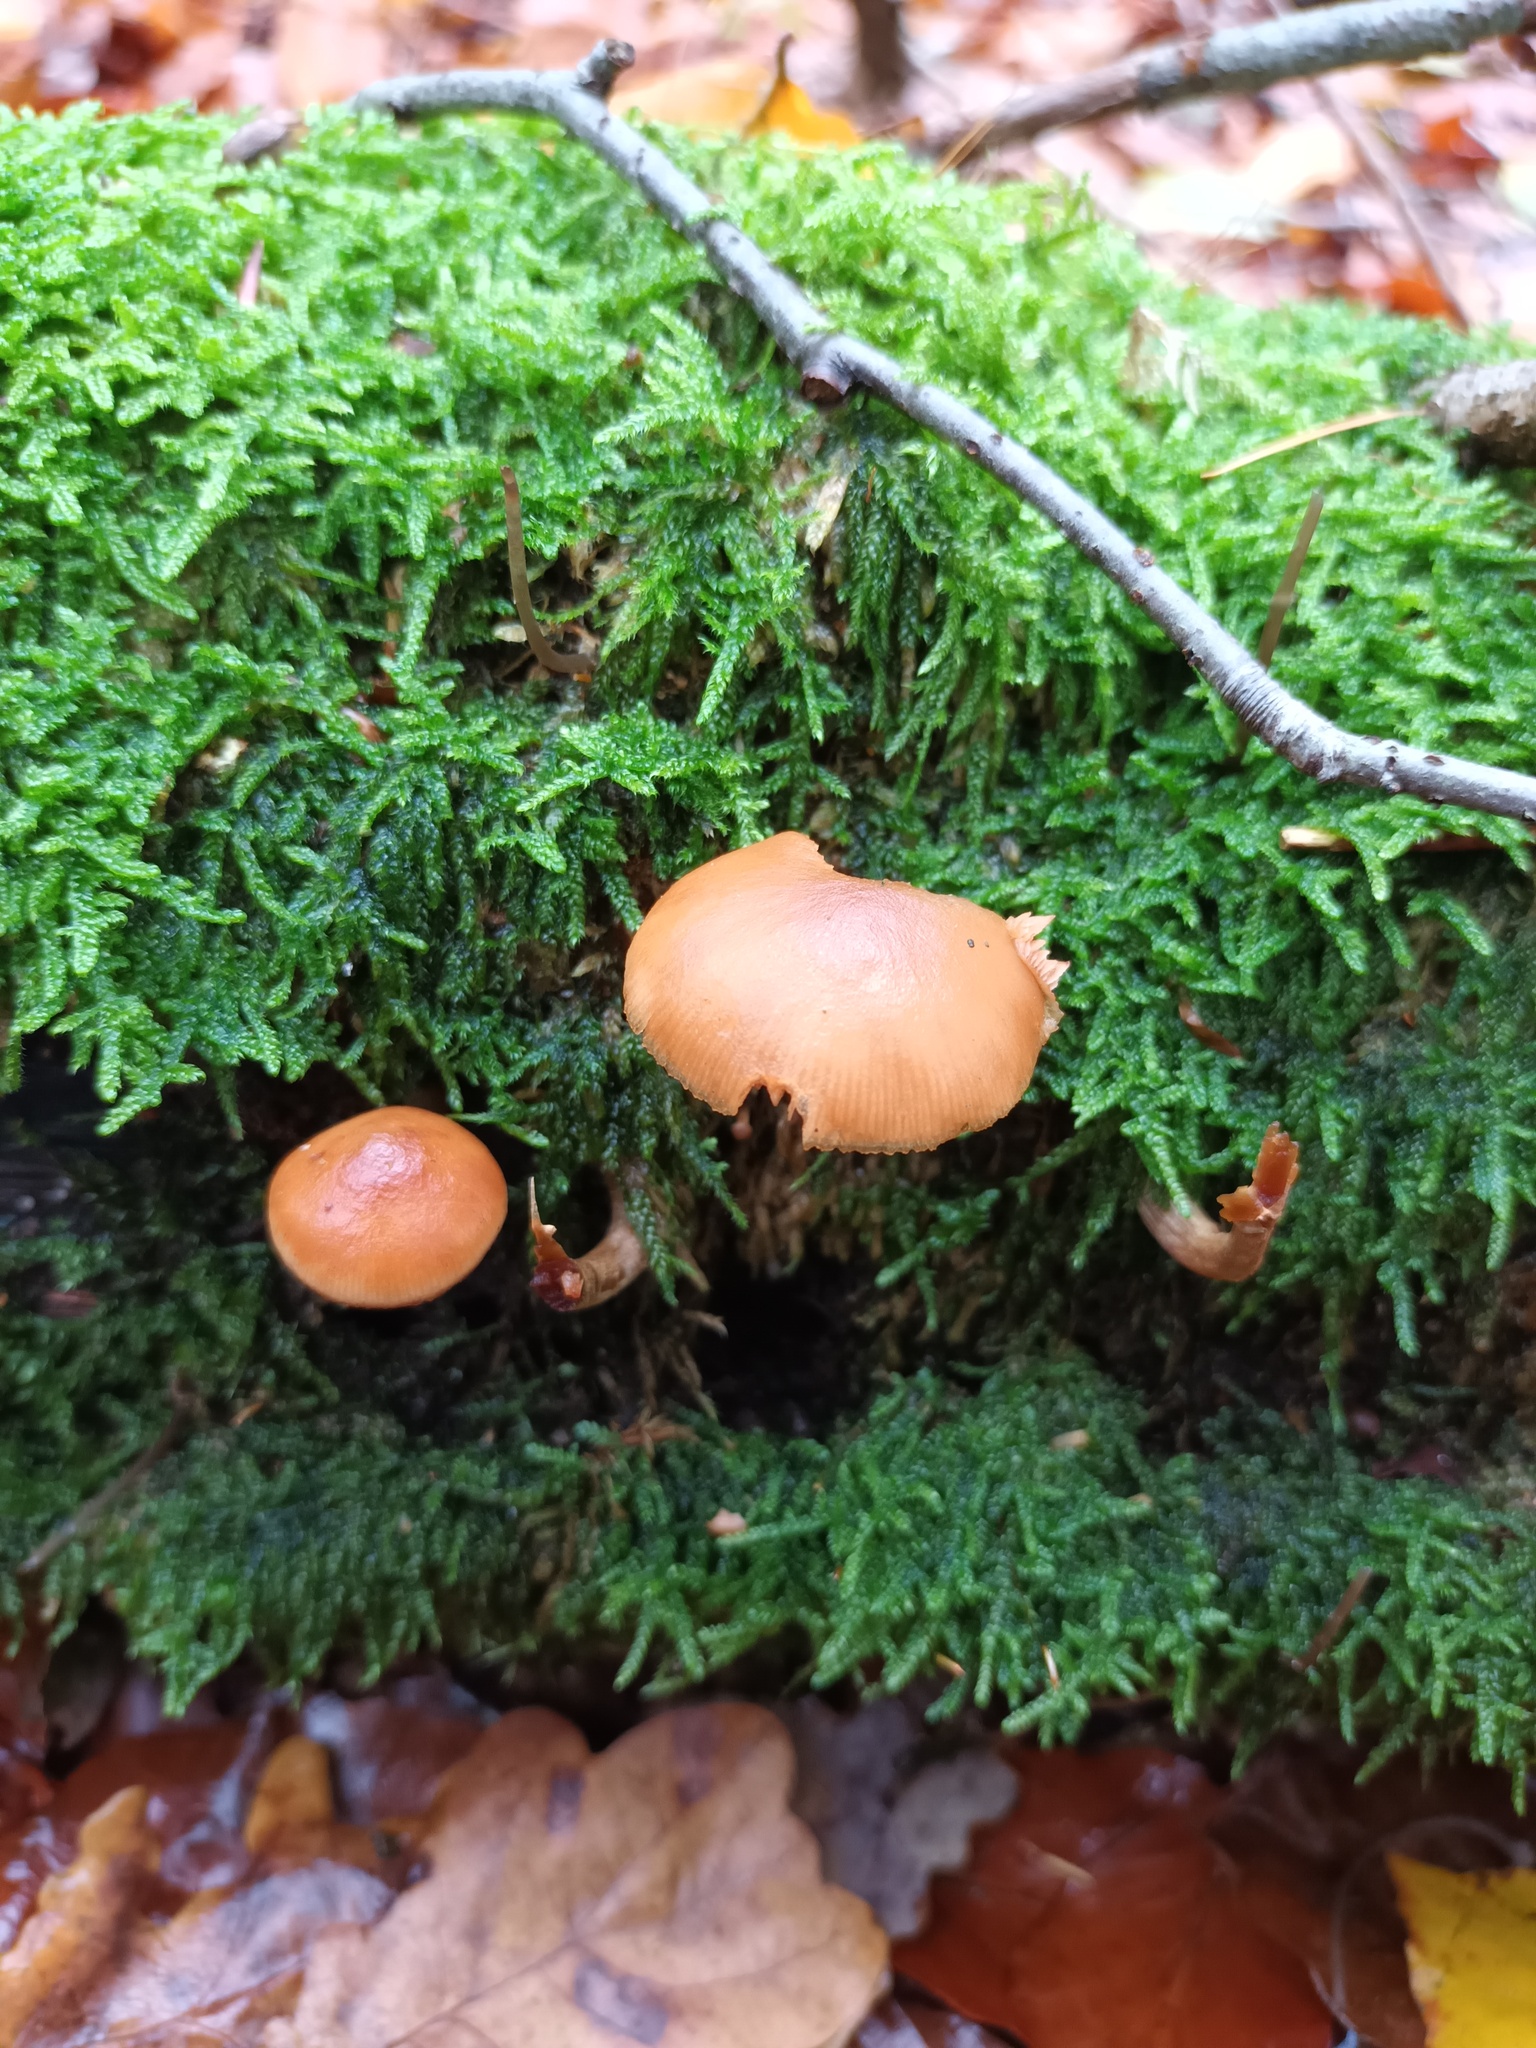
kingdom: Fungi
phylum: Basidiomycota
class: Agaricomycetes
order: Agaricales
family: Hymenogastraceae
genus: Galerina
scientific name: Galerina marginata
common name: Funeral bell
